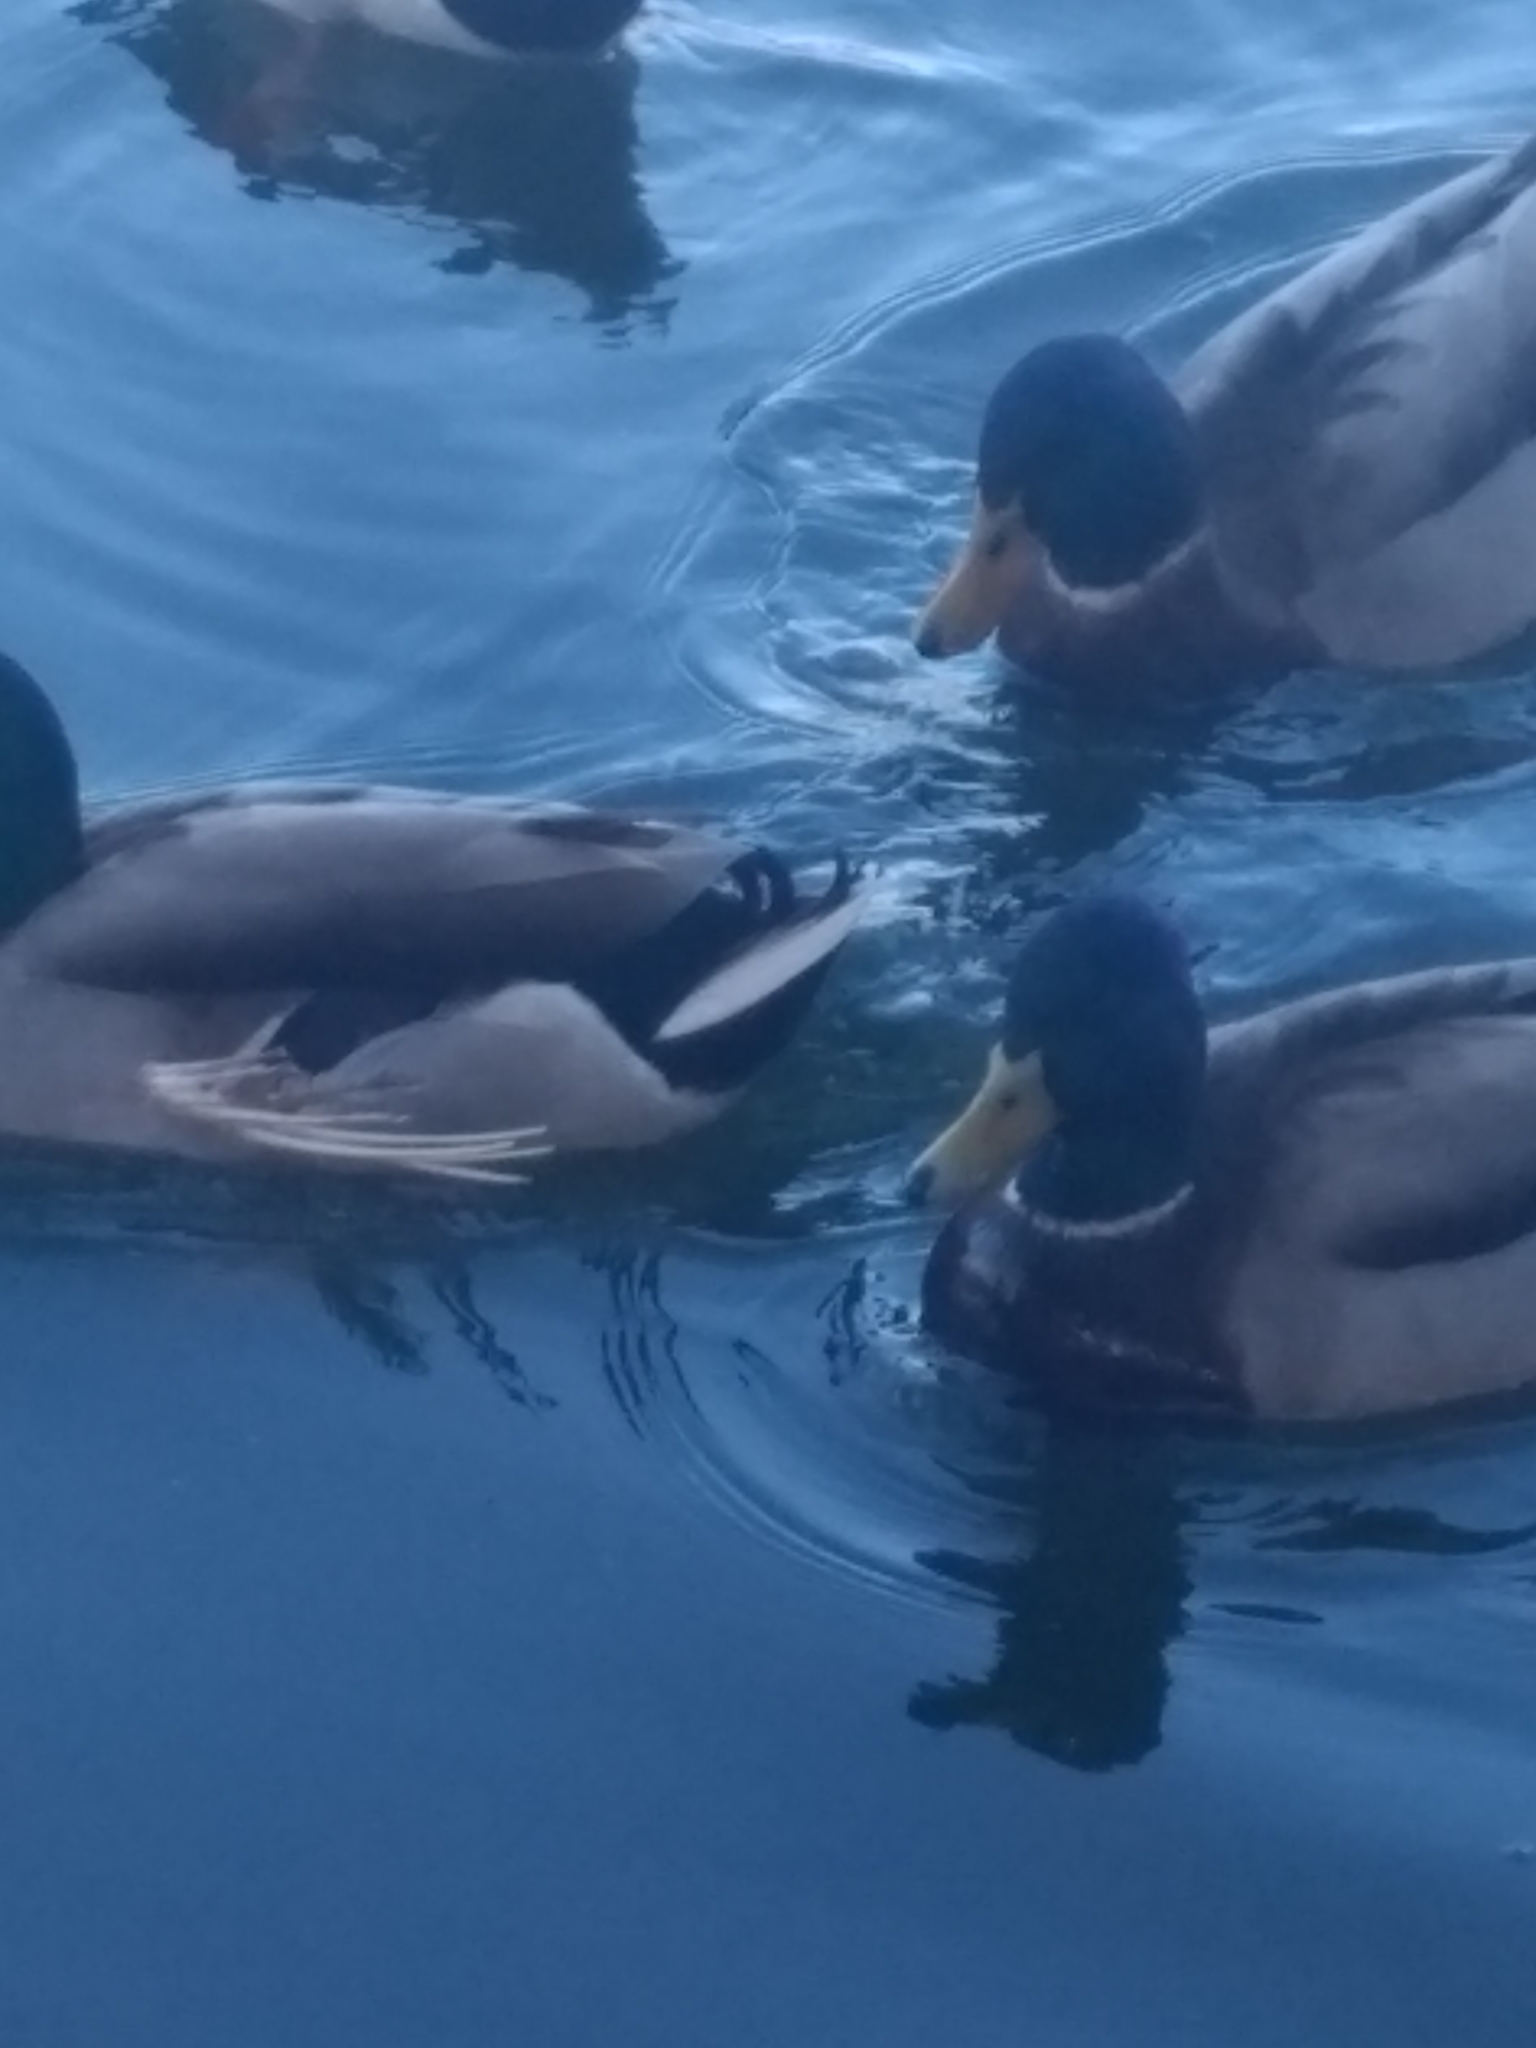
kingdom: Animalia
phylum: Chordata
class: Aves
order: Anseriformes
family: Anatidae
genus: Anas
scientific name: Anas platyrhynchos
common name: Mallard
